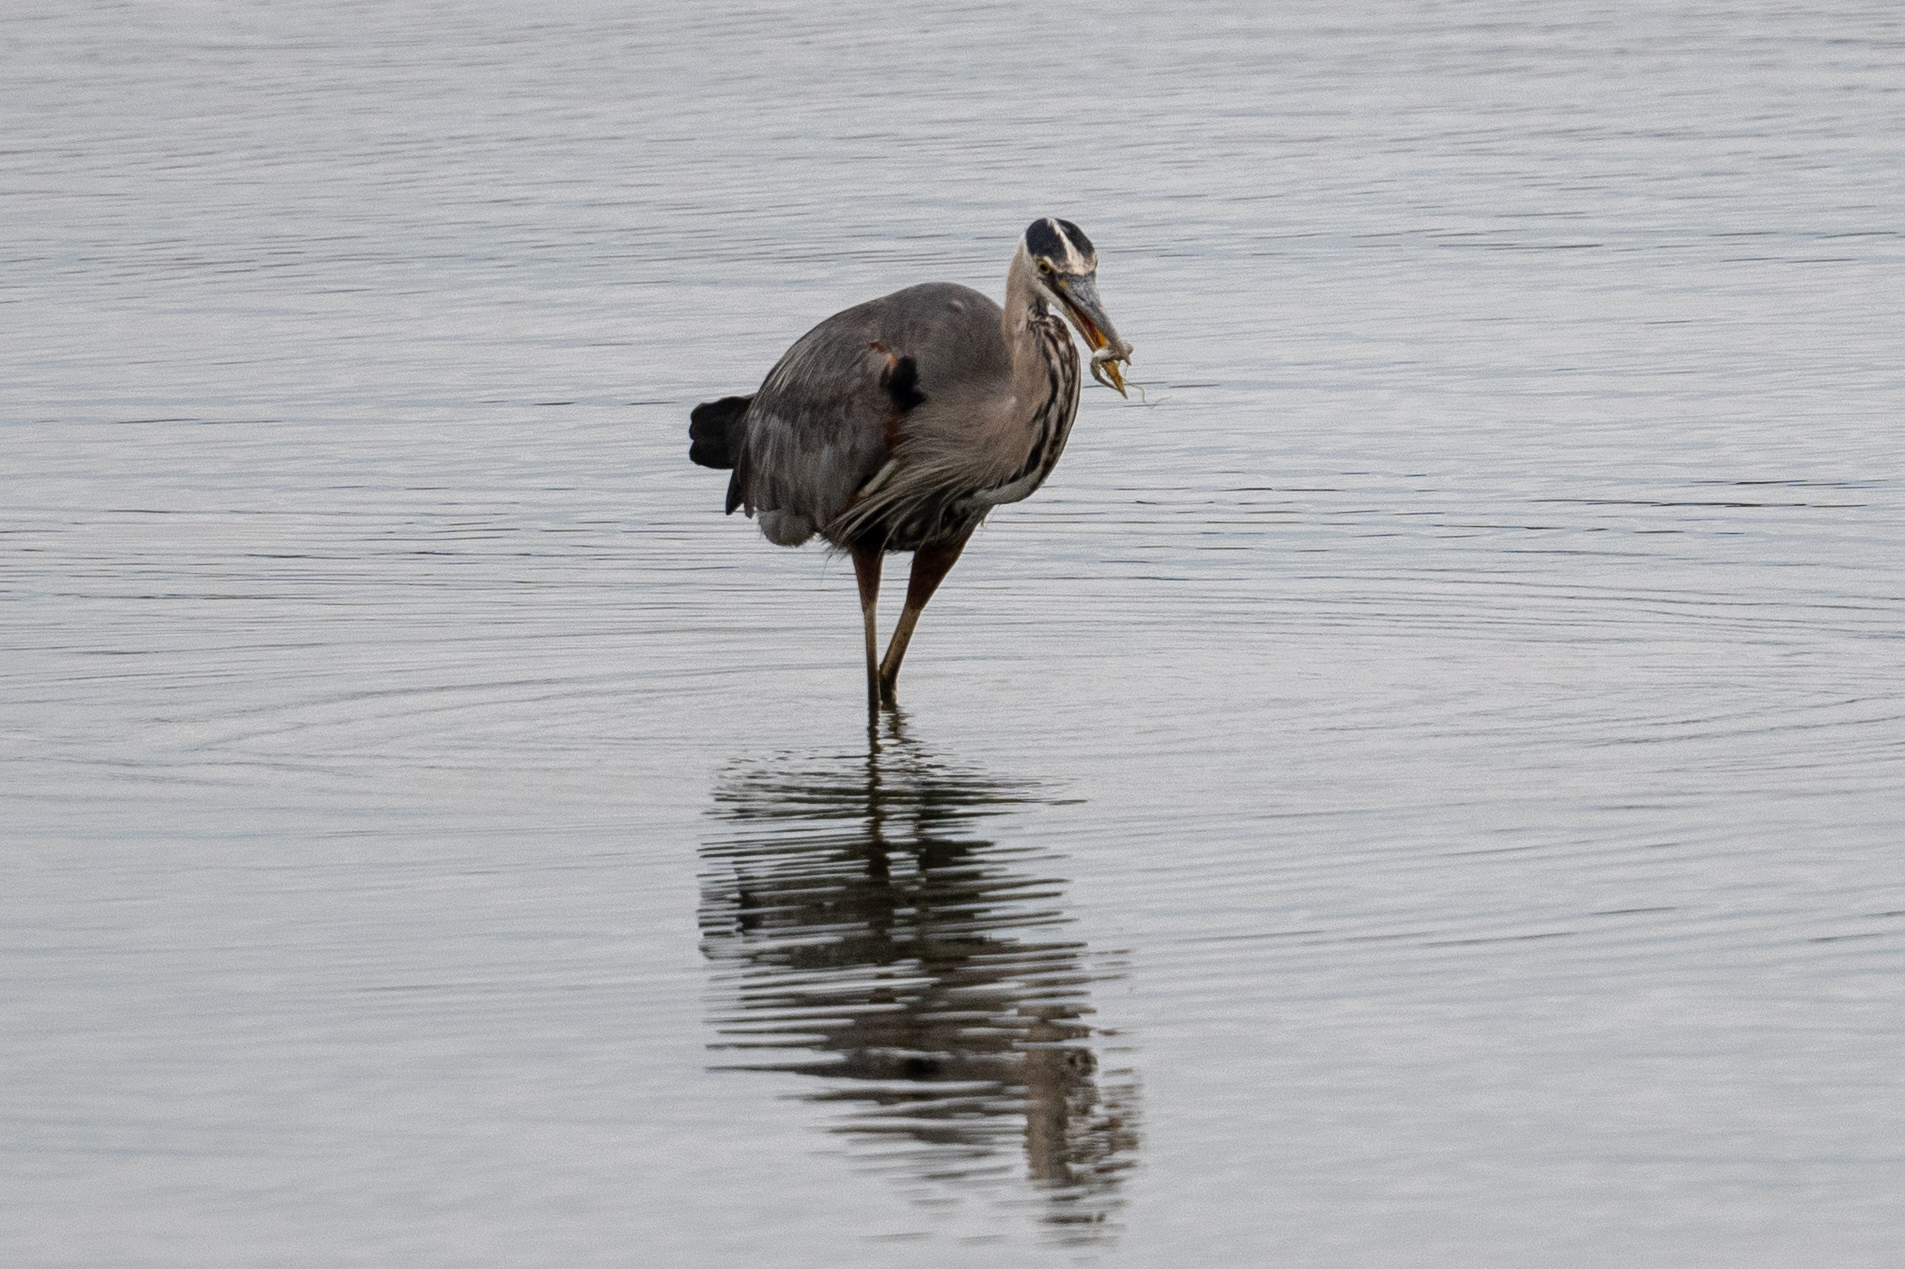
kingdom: Animalia
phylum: Chordata
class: Aves
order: Pelecaniformes
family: Ardeidae
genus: Ardea
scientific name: Ardea herodias
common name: Great blue heron
